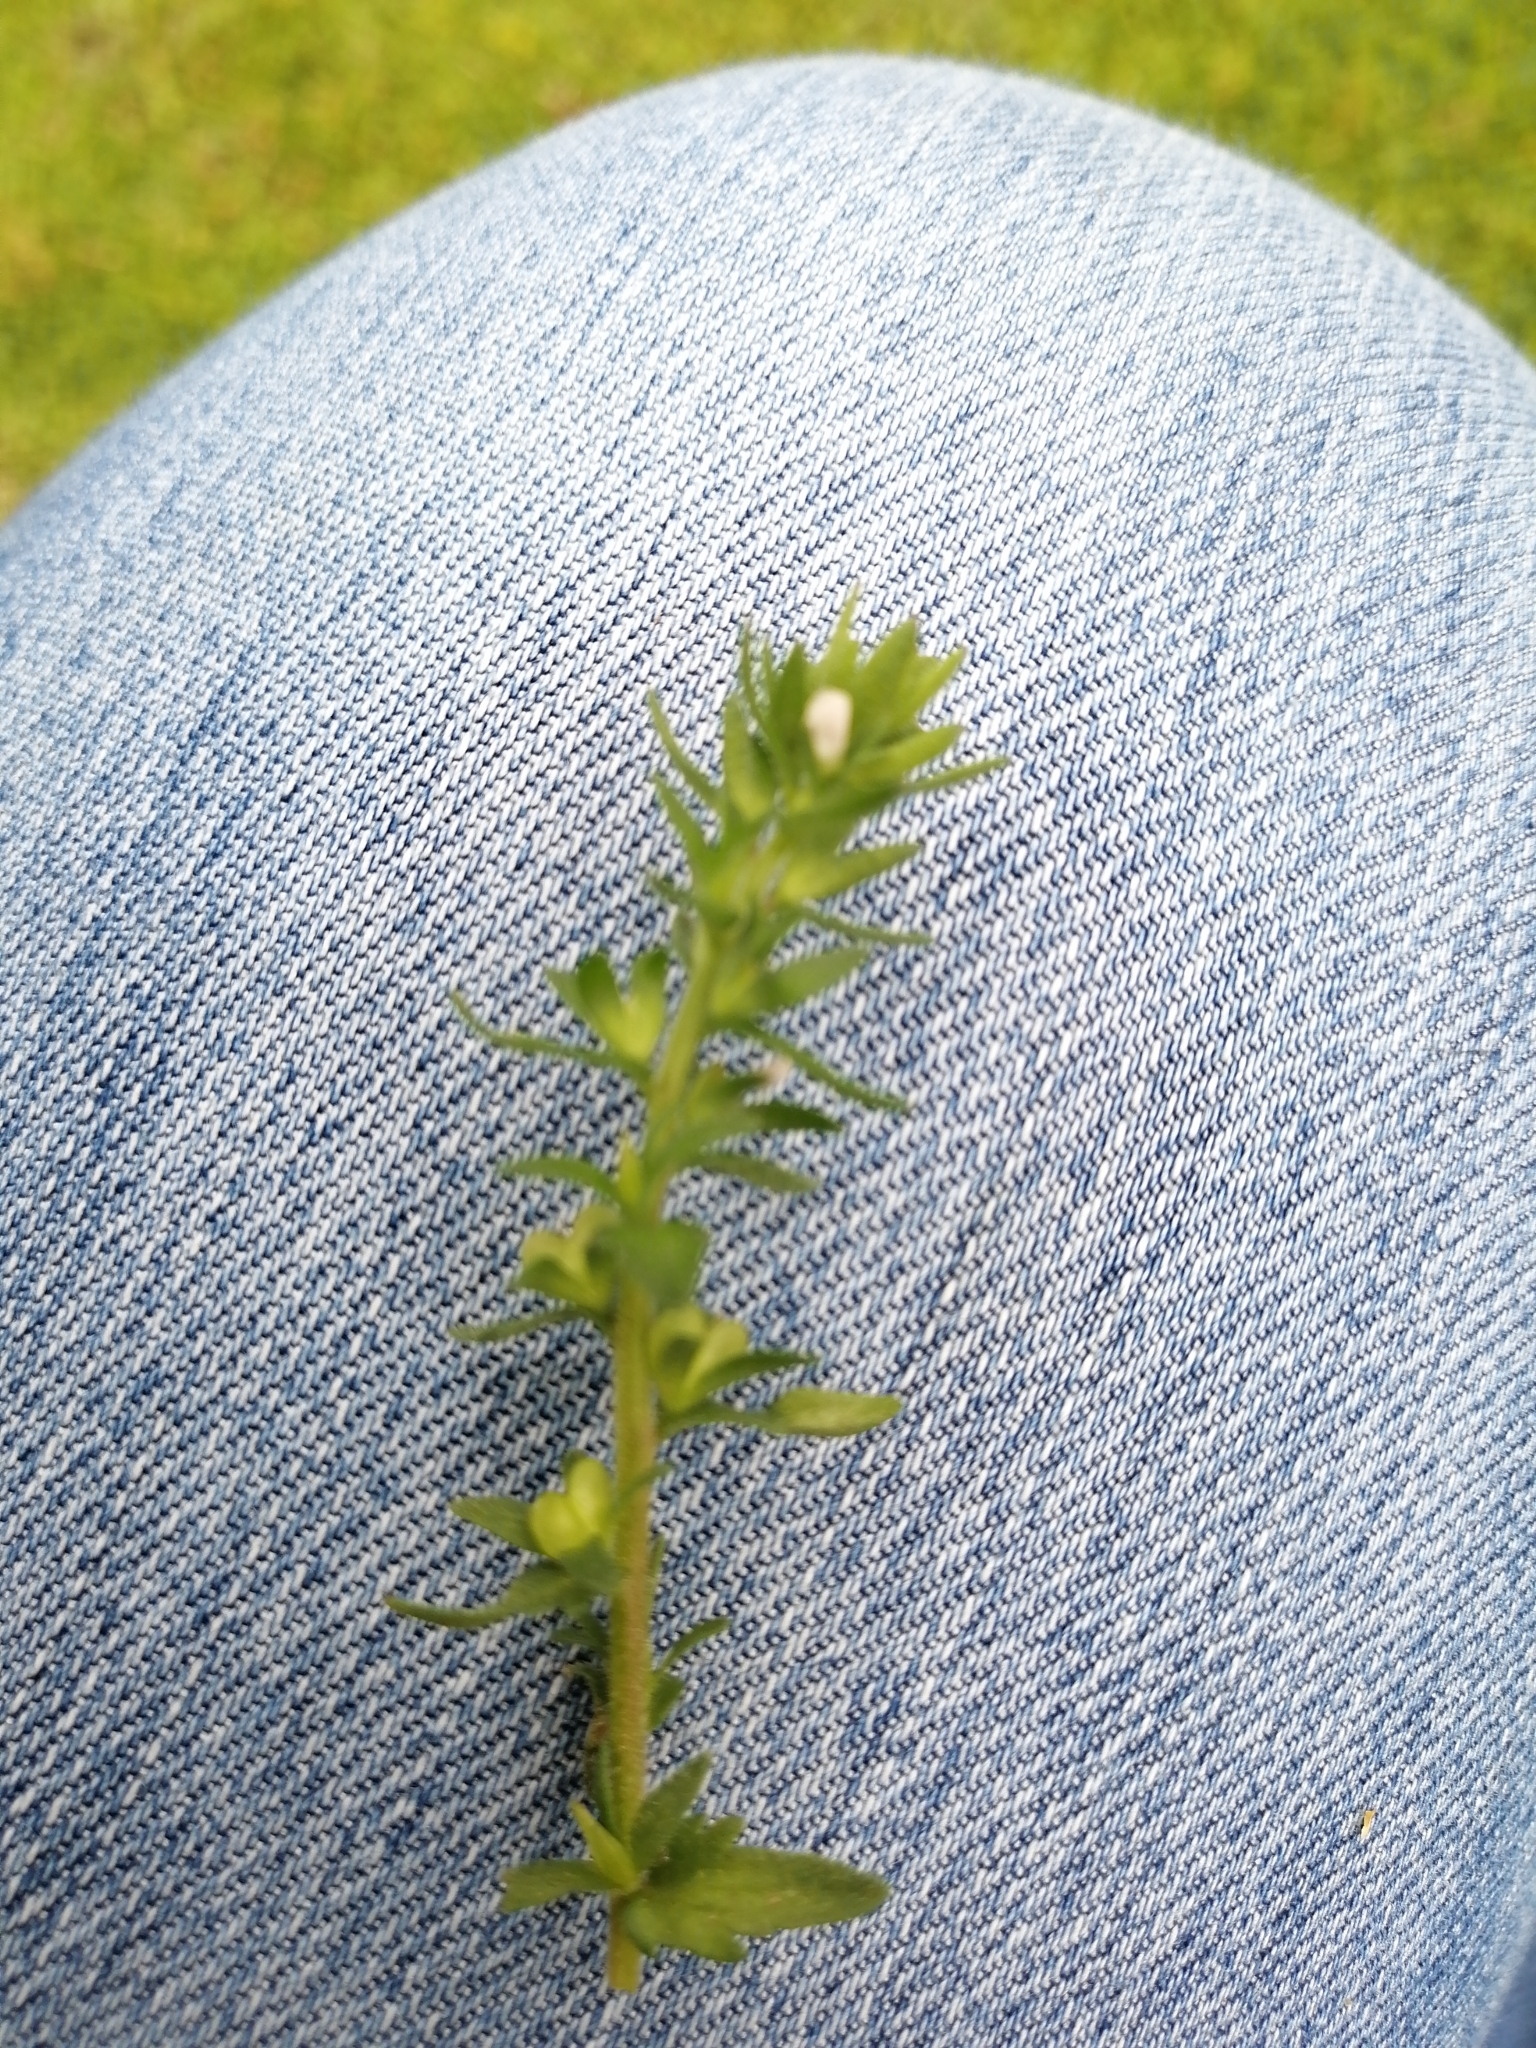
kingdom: Plantae
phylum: Tracheophyta
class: Magnoliopsida
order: Lamiales
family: Plantaginaceae
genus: Veronica
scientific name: Veronica arvensis
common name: Corn speedwell
